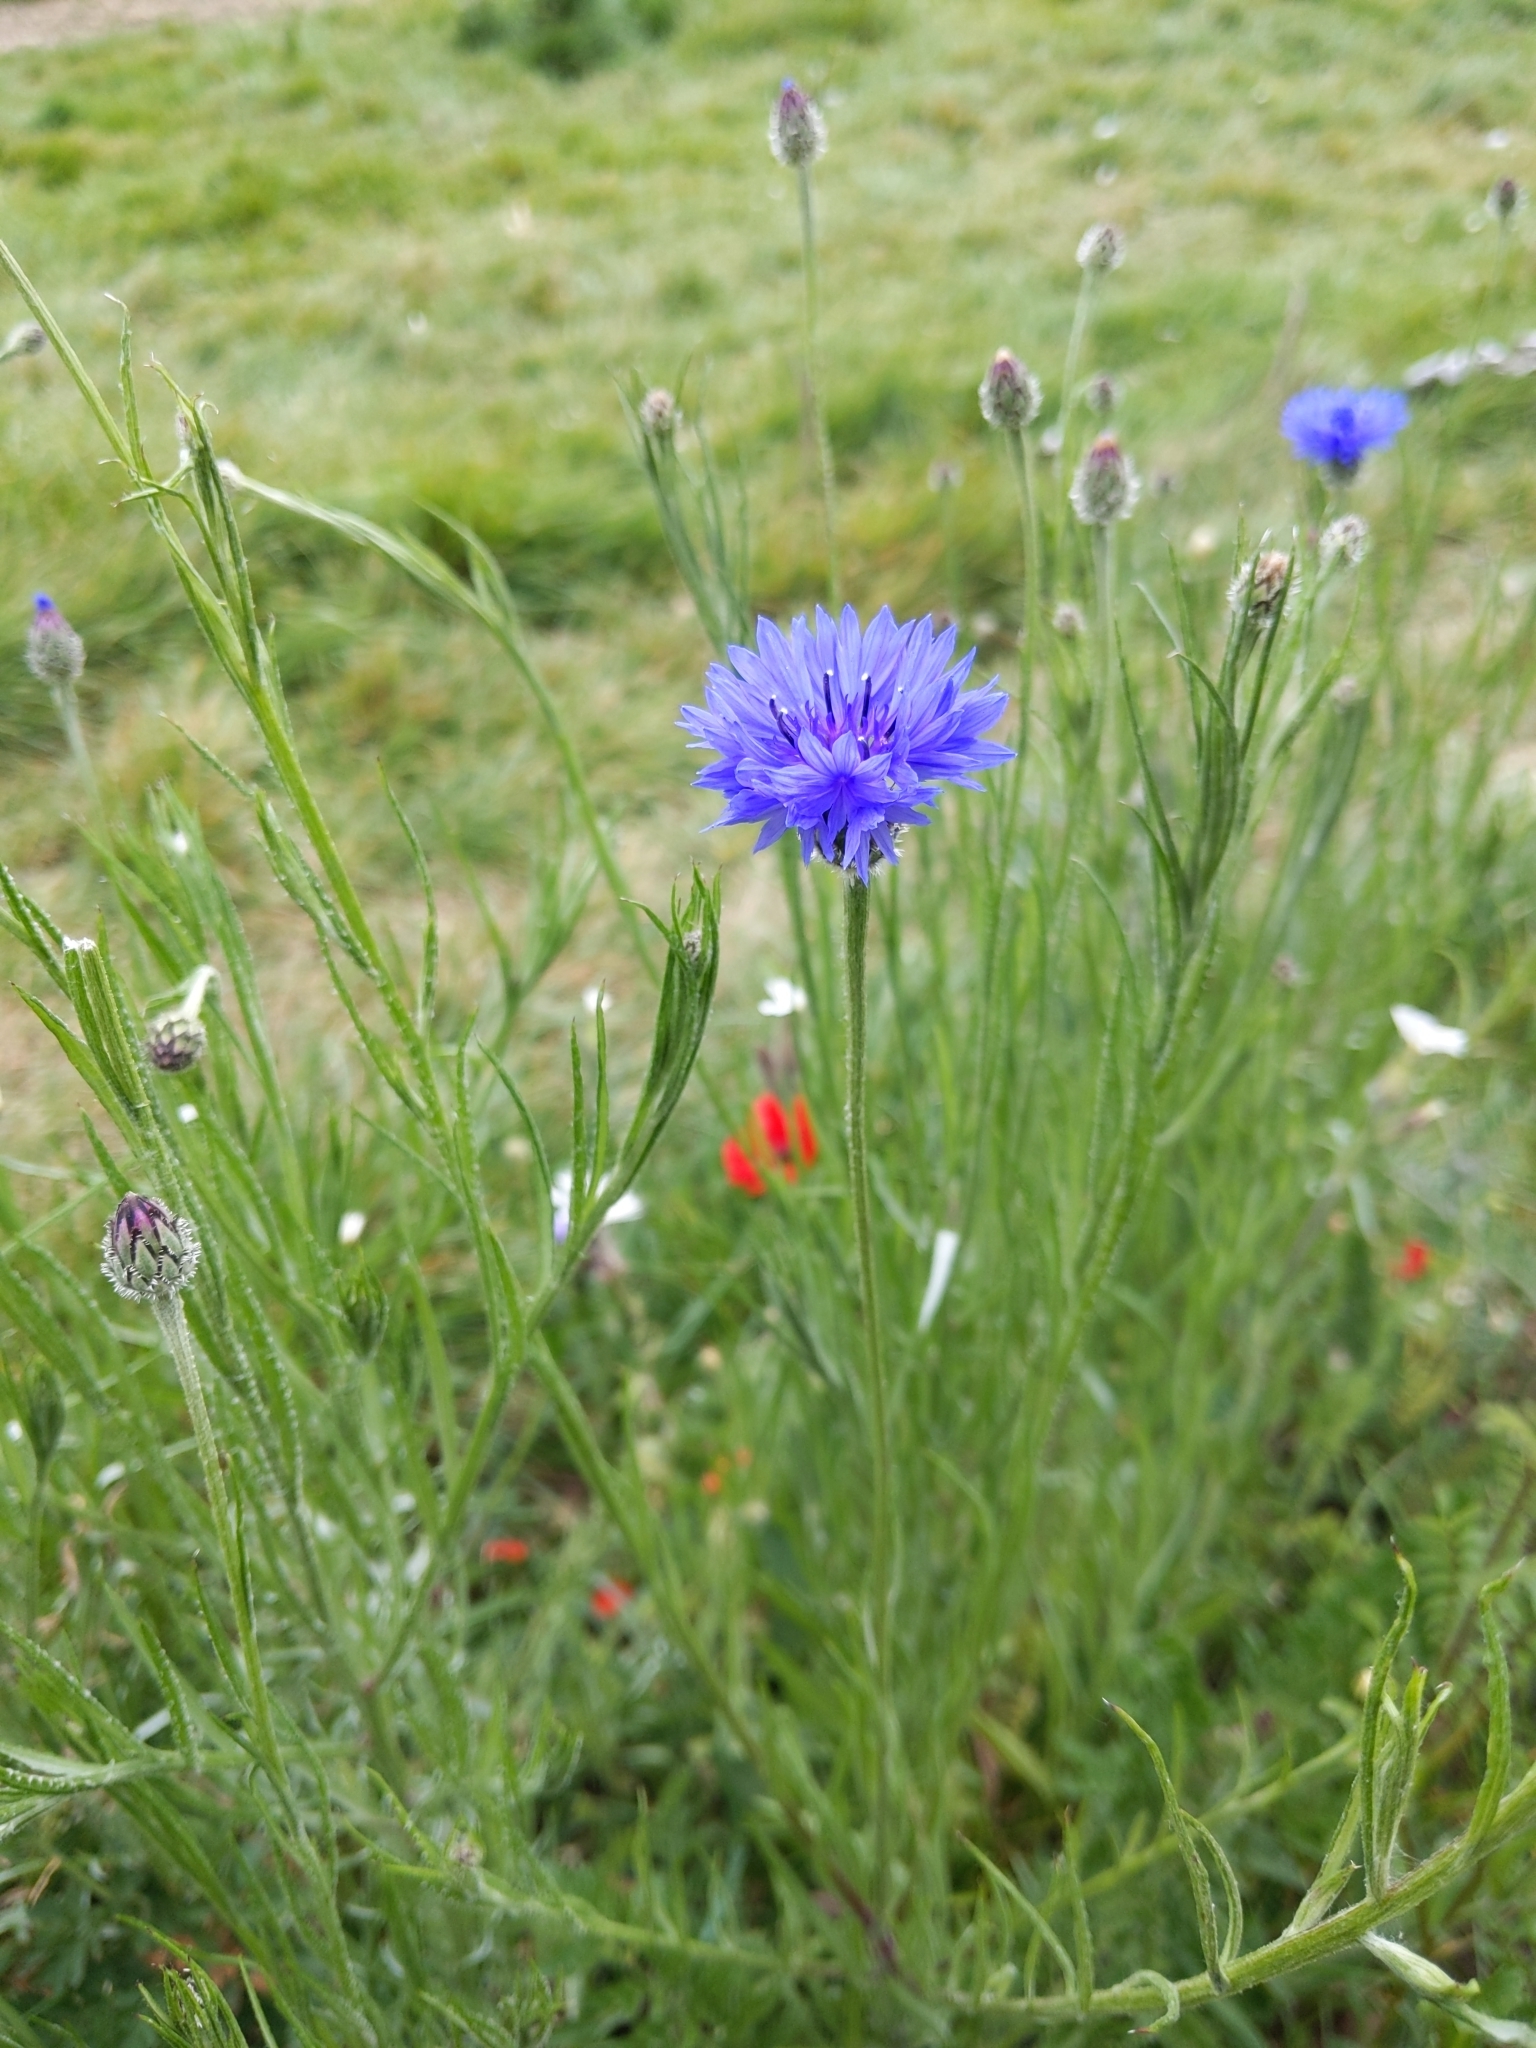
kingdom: Plantae
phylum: Tracheophyta
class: Magnoliopsida
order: Asterales
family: Asteraceae
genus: Centaurea
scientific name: Centaurea cyanus
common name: Cornflower
